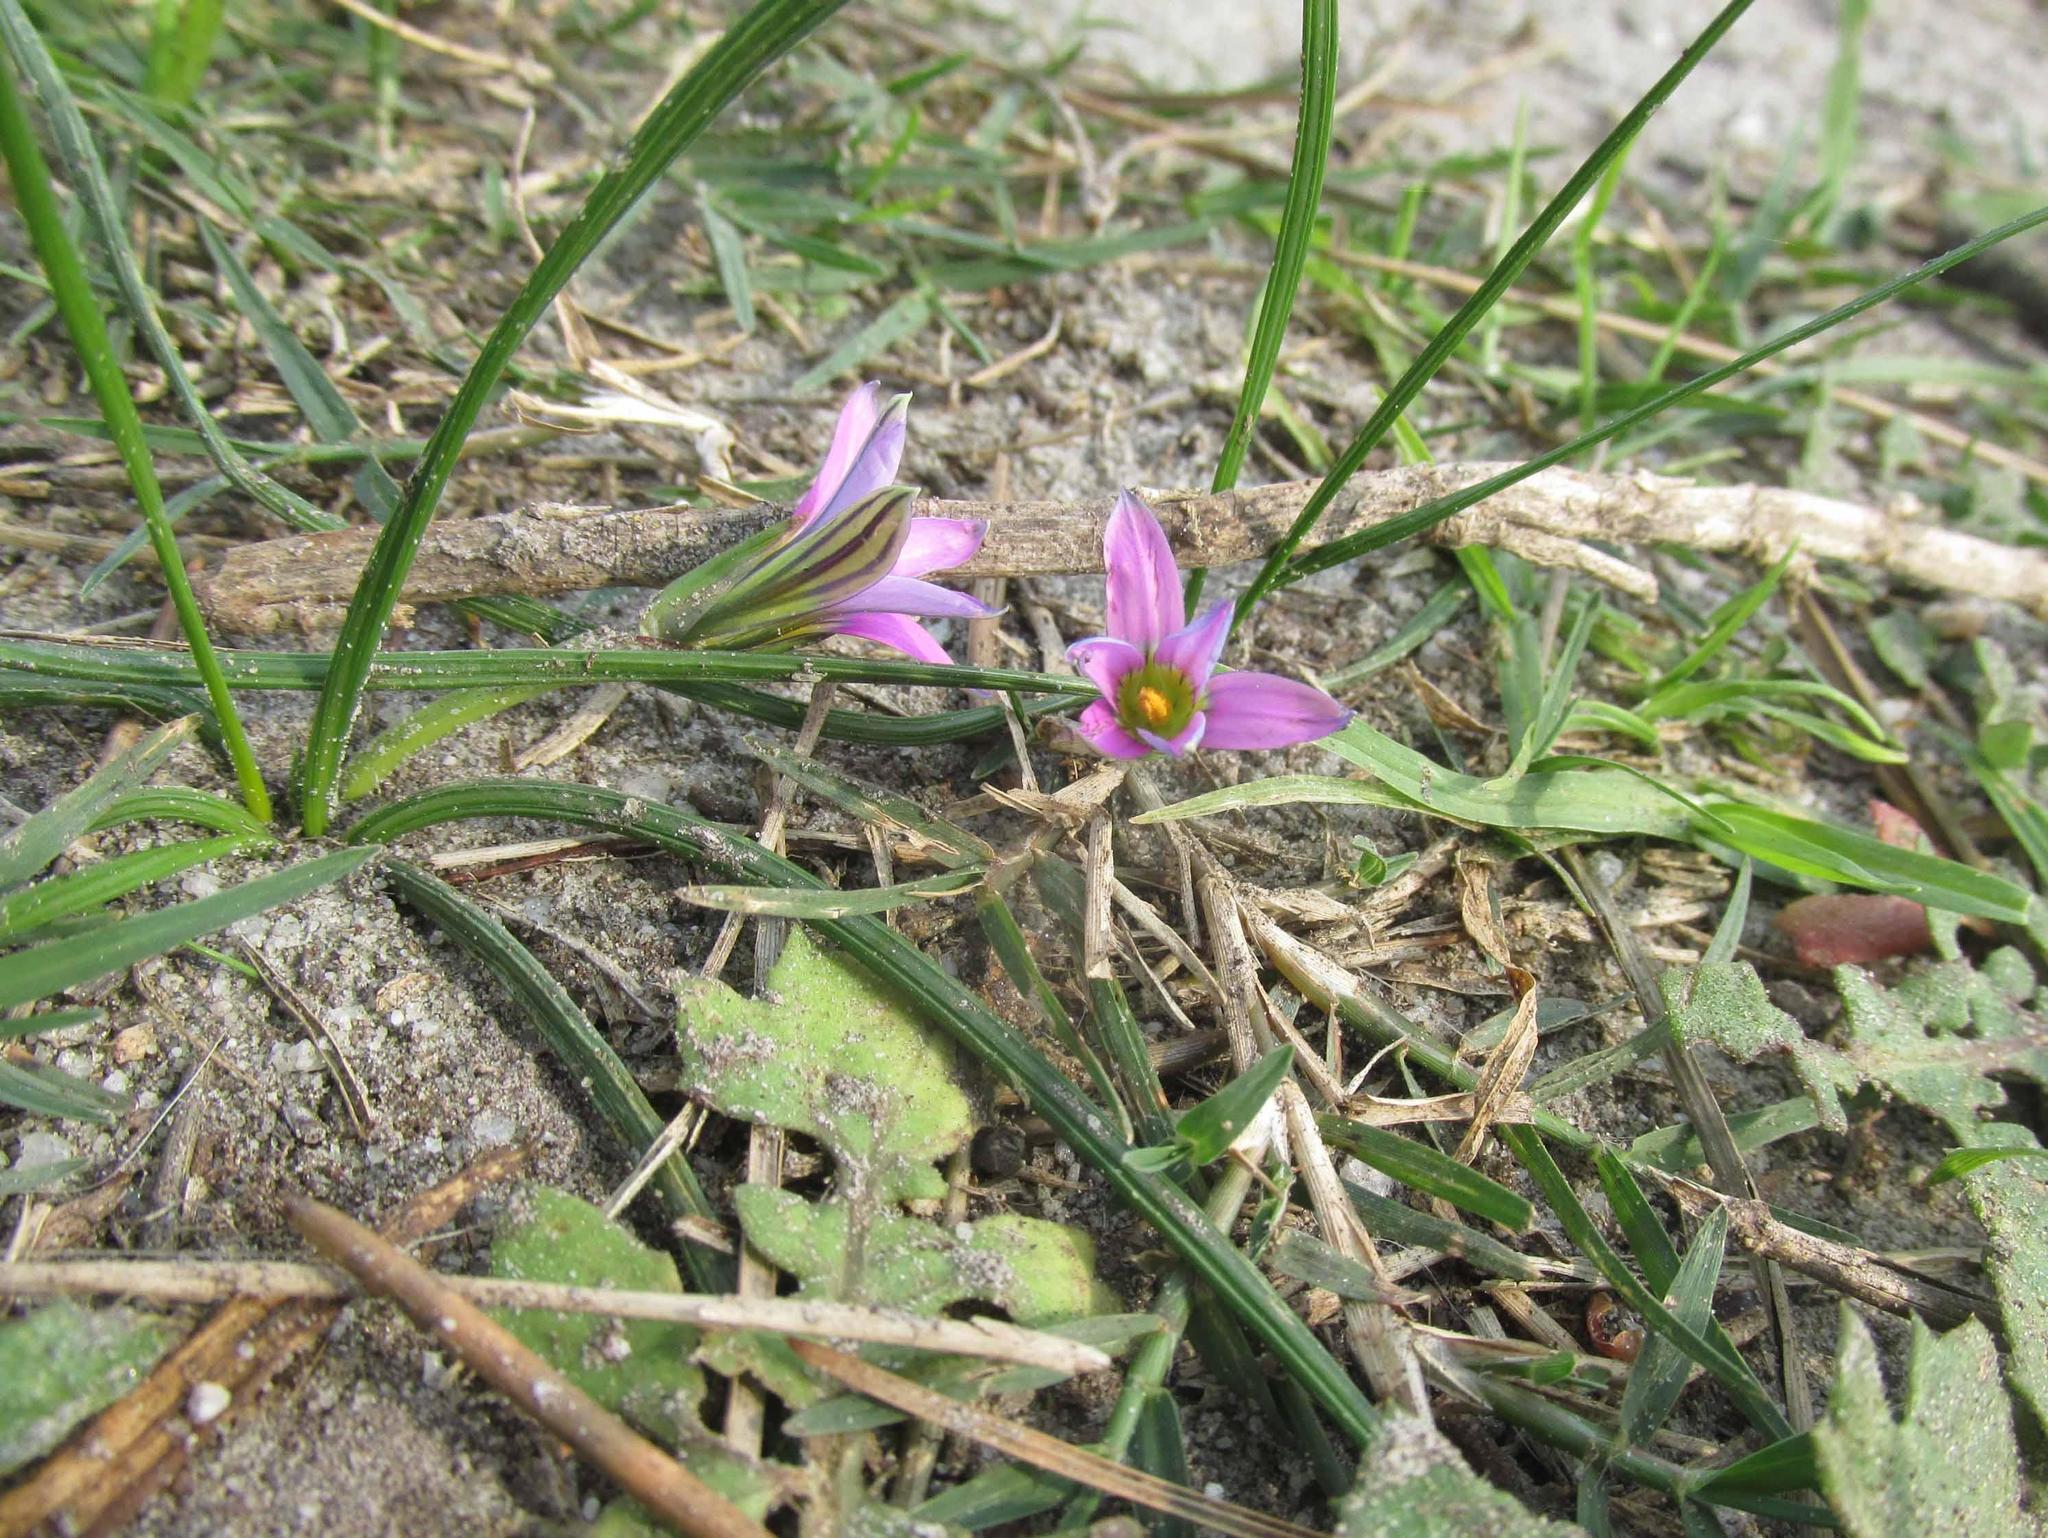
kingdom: Plantae
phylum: Tracheophyta
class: Liliopsida
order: Asparagales
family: Iridaceae
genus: Romulea
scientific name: Romulea rosea
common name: Oniongrass
